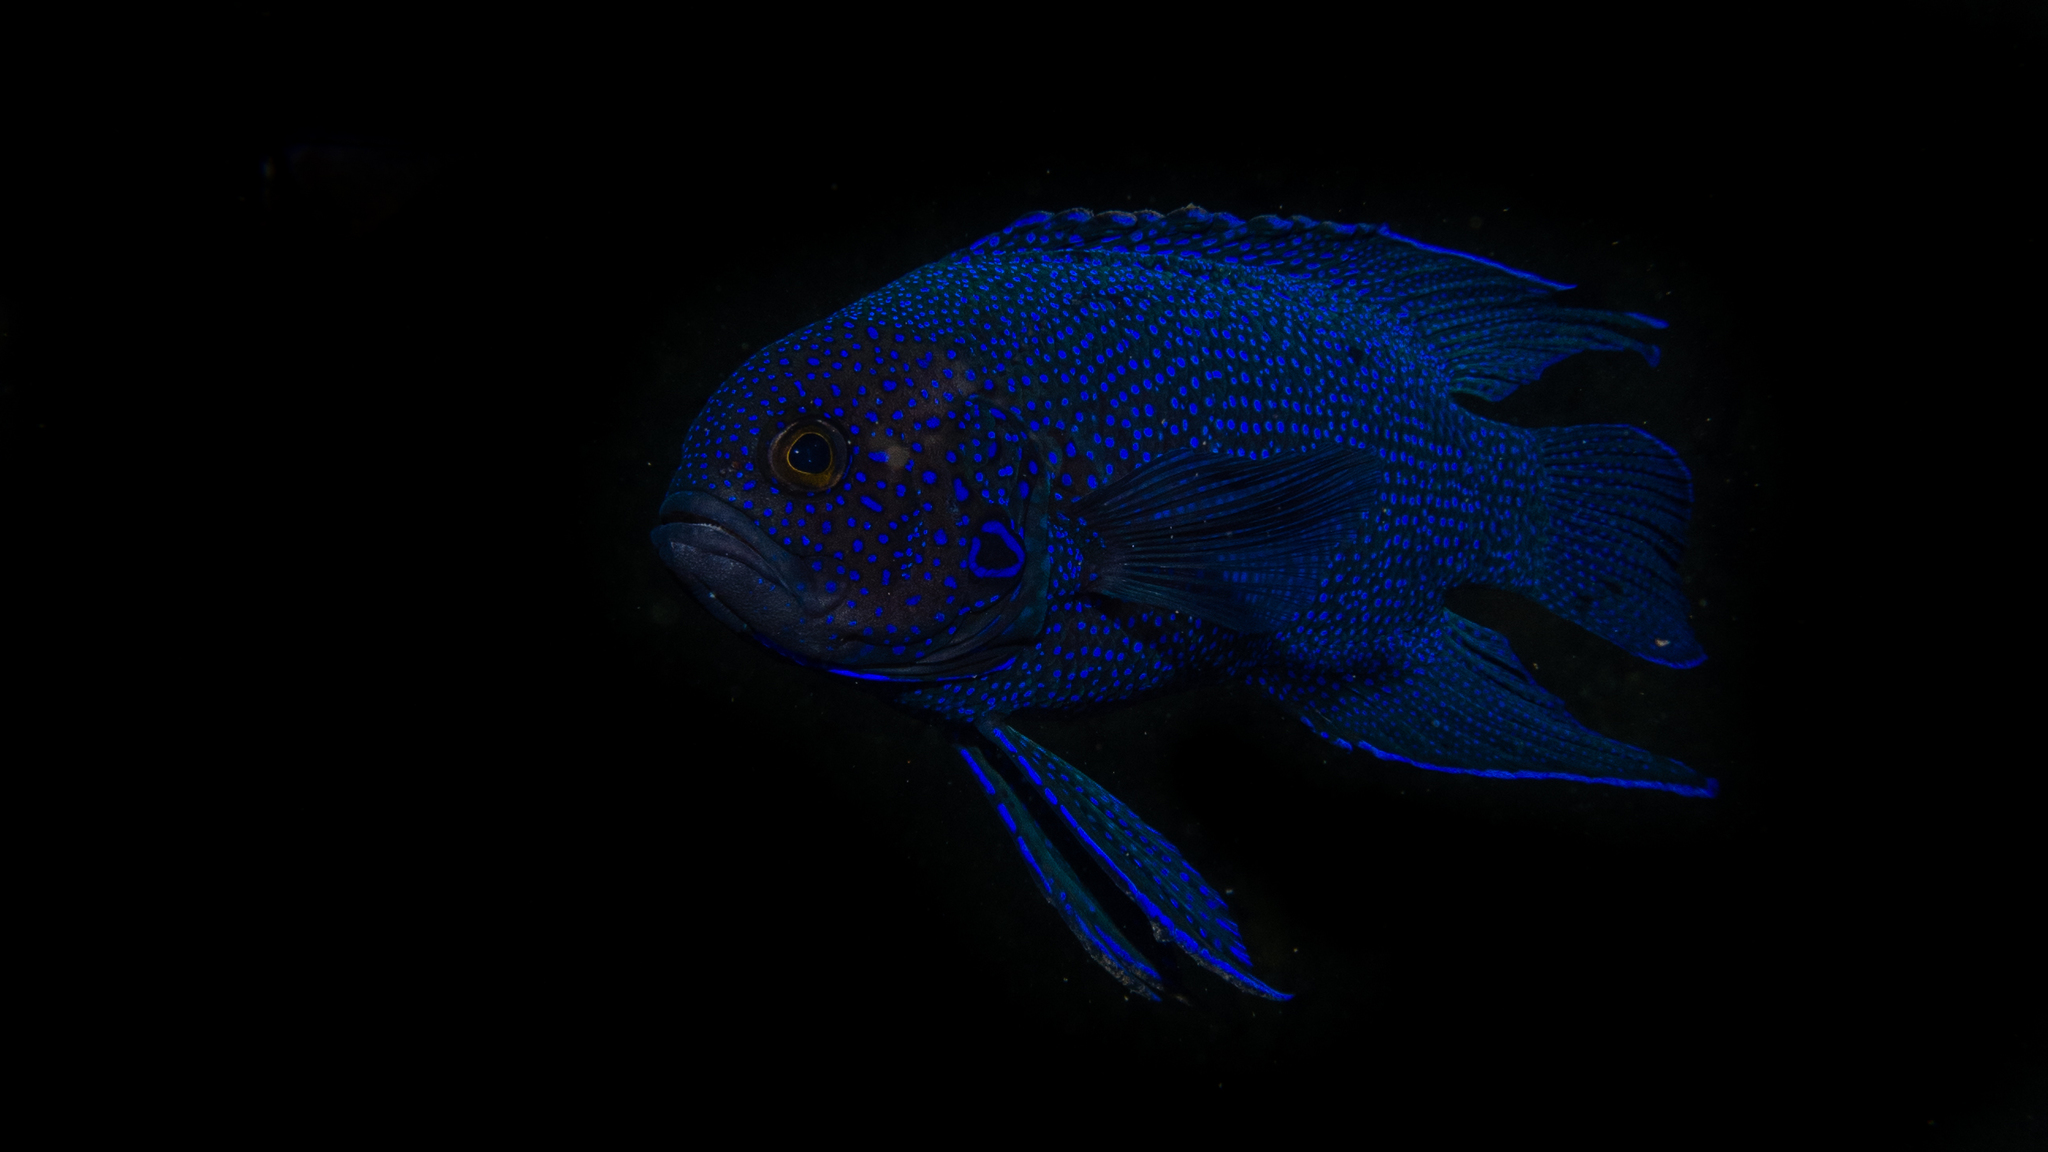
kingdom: Animalia
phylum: Chordata
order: Perciformes
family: Plesiopidae
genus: Paraplesiops
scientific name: Paraplesiops meleagris
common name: Blue devil
